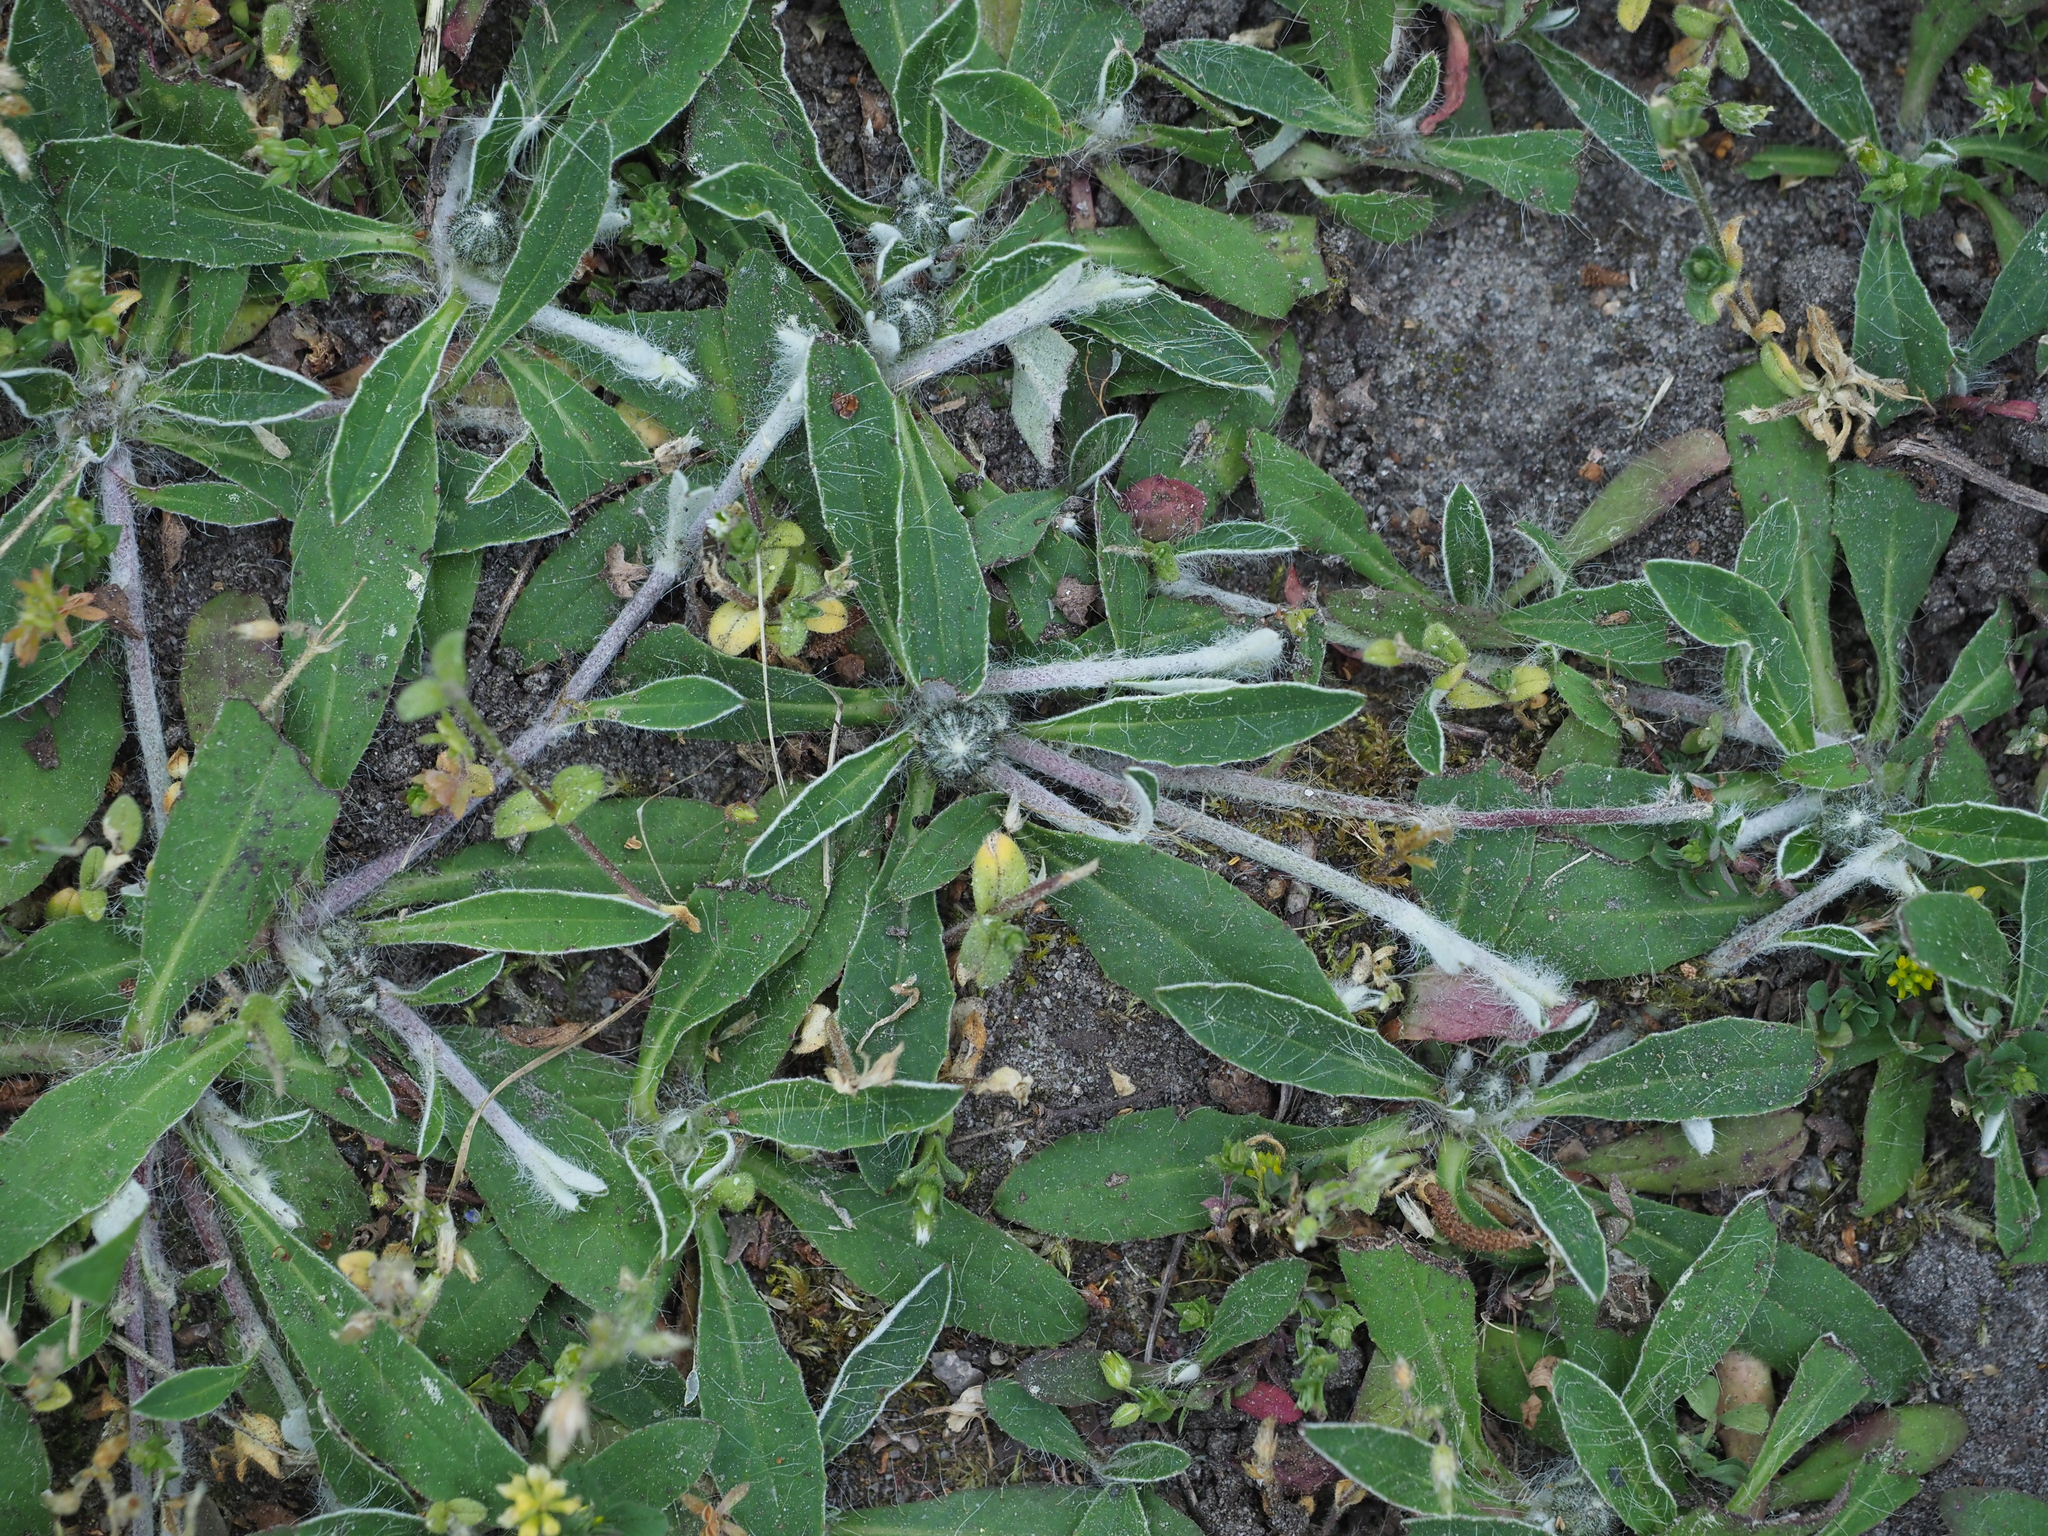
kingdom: Plantae
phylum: Tracheophyta
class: Magnoliopsida
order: Asterales
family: Asteraceae
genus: Pilosella
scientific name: Pilosella officinarum
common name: Mouse-ear hawkweed
